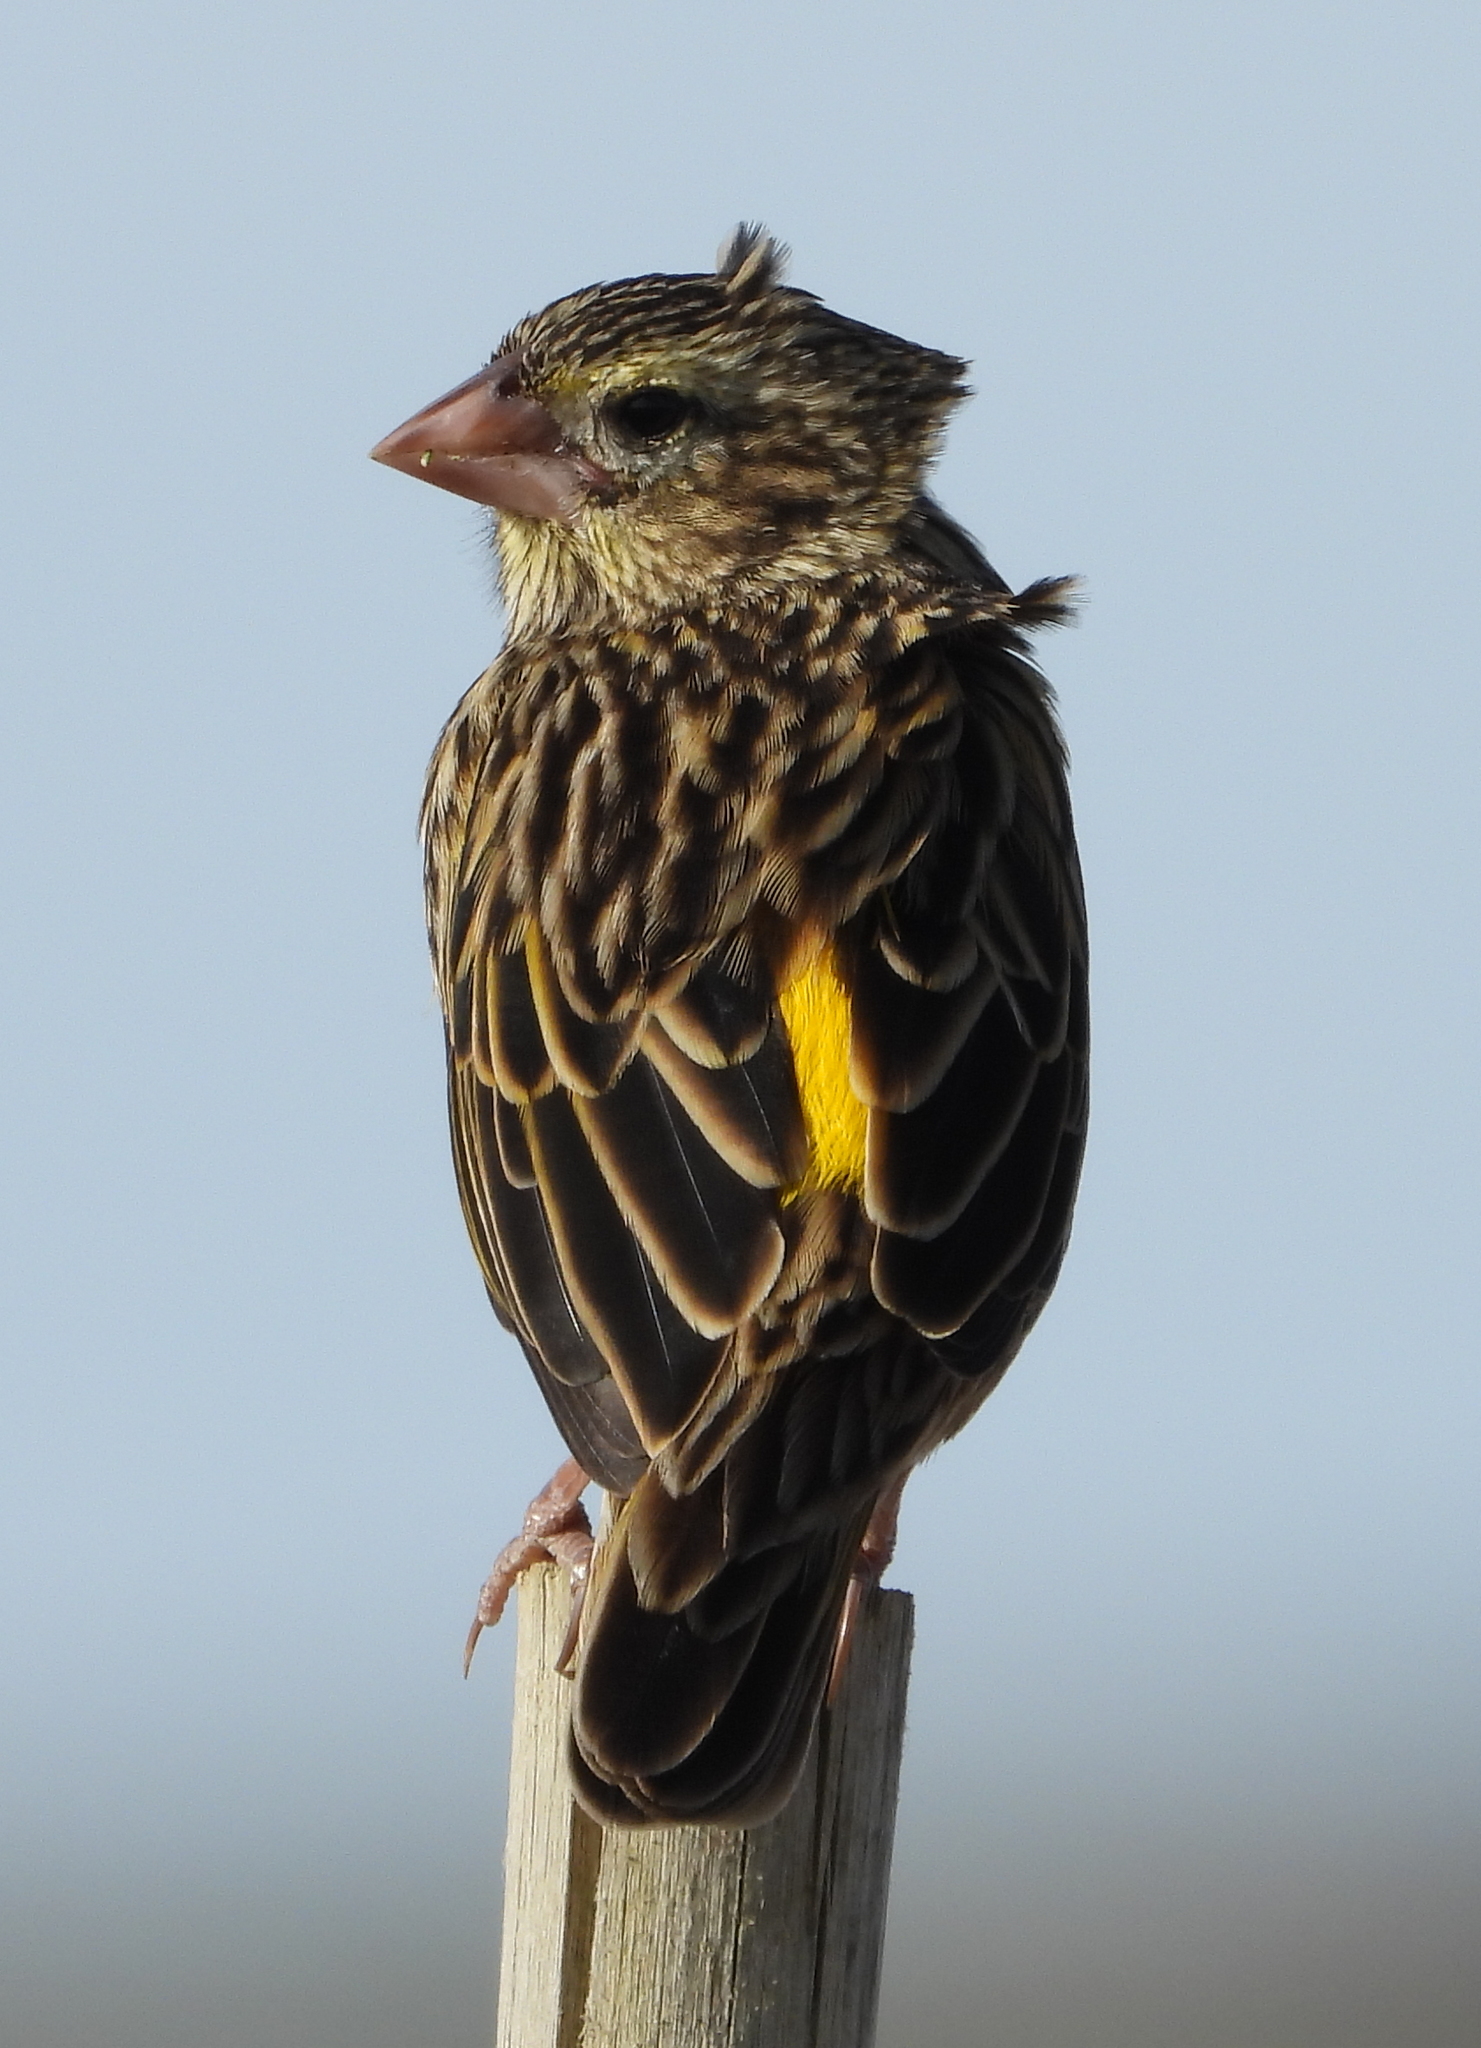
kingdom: Animalia
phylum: Chordata
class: Aves
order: Passeriformes
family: Ploceidae
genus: Euplectes
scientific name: Euplectes capensis
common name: Yellow bishop
